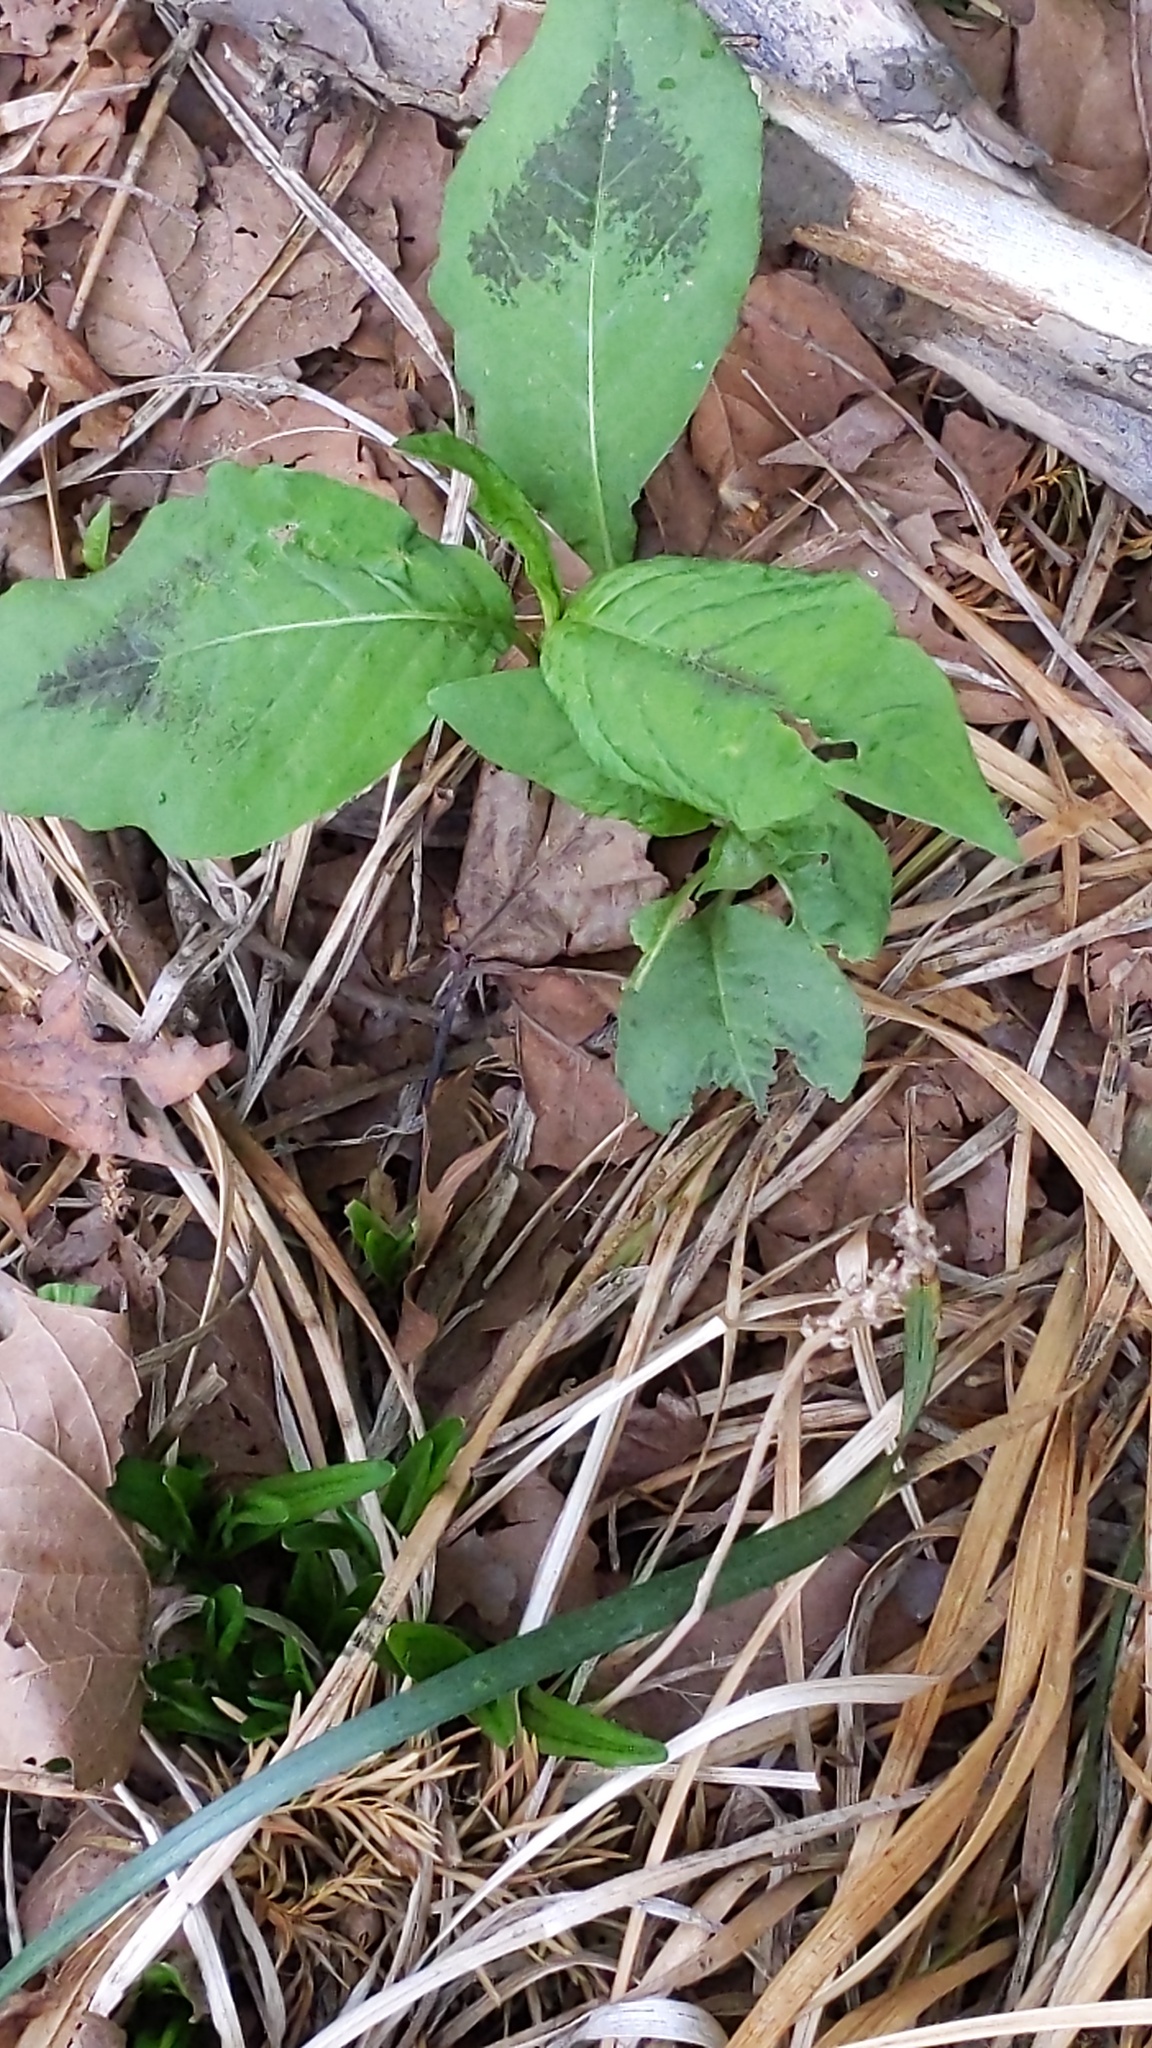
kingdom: Plantae
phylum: Tracheophyta
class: Magnoliopsida
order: Caryophyllales
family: Polygonaceae
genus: Persicaria
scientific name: Persicaria virginiana
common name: Jumpseed
